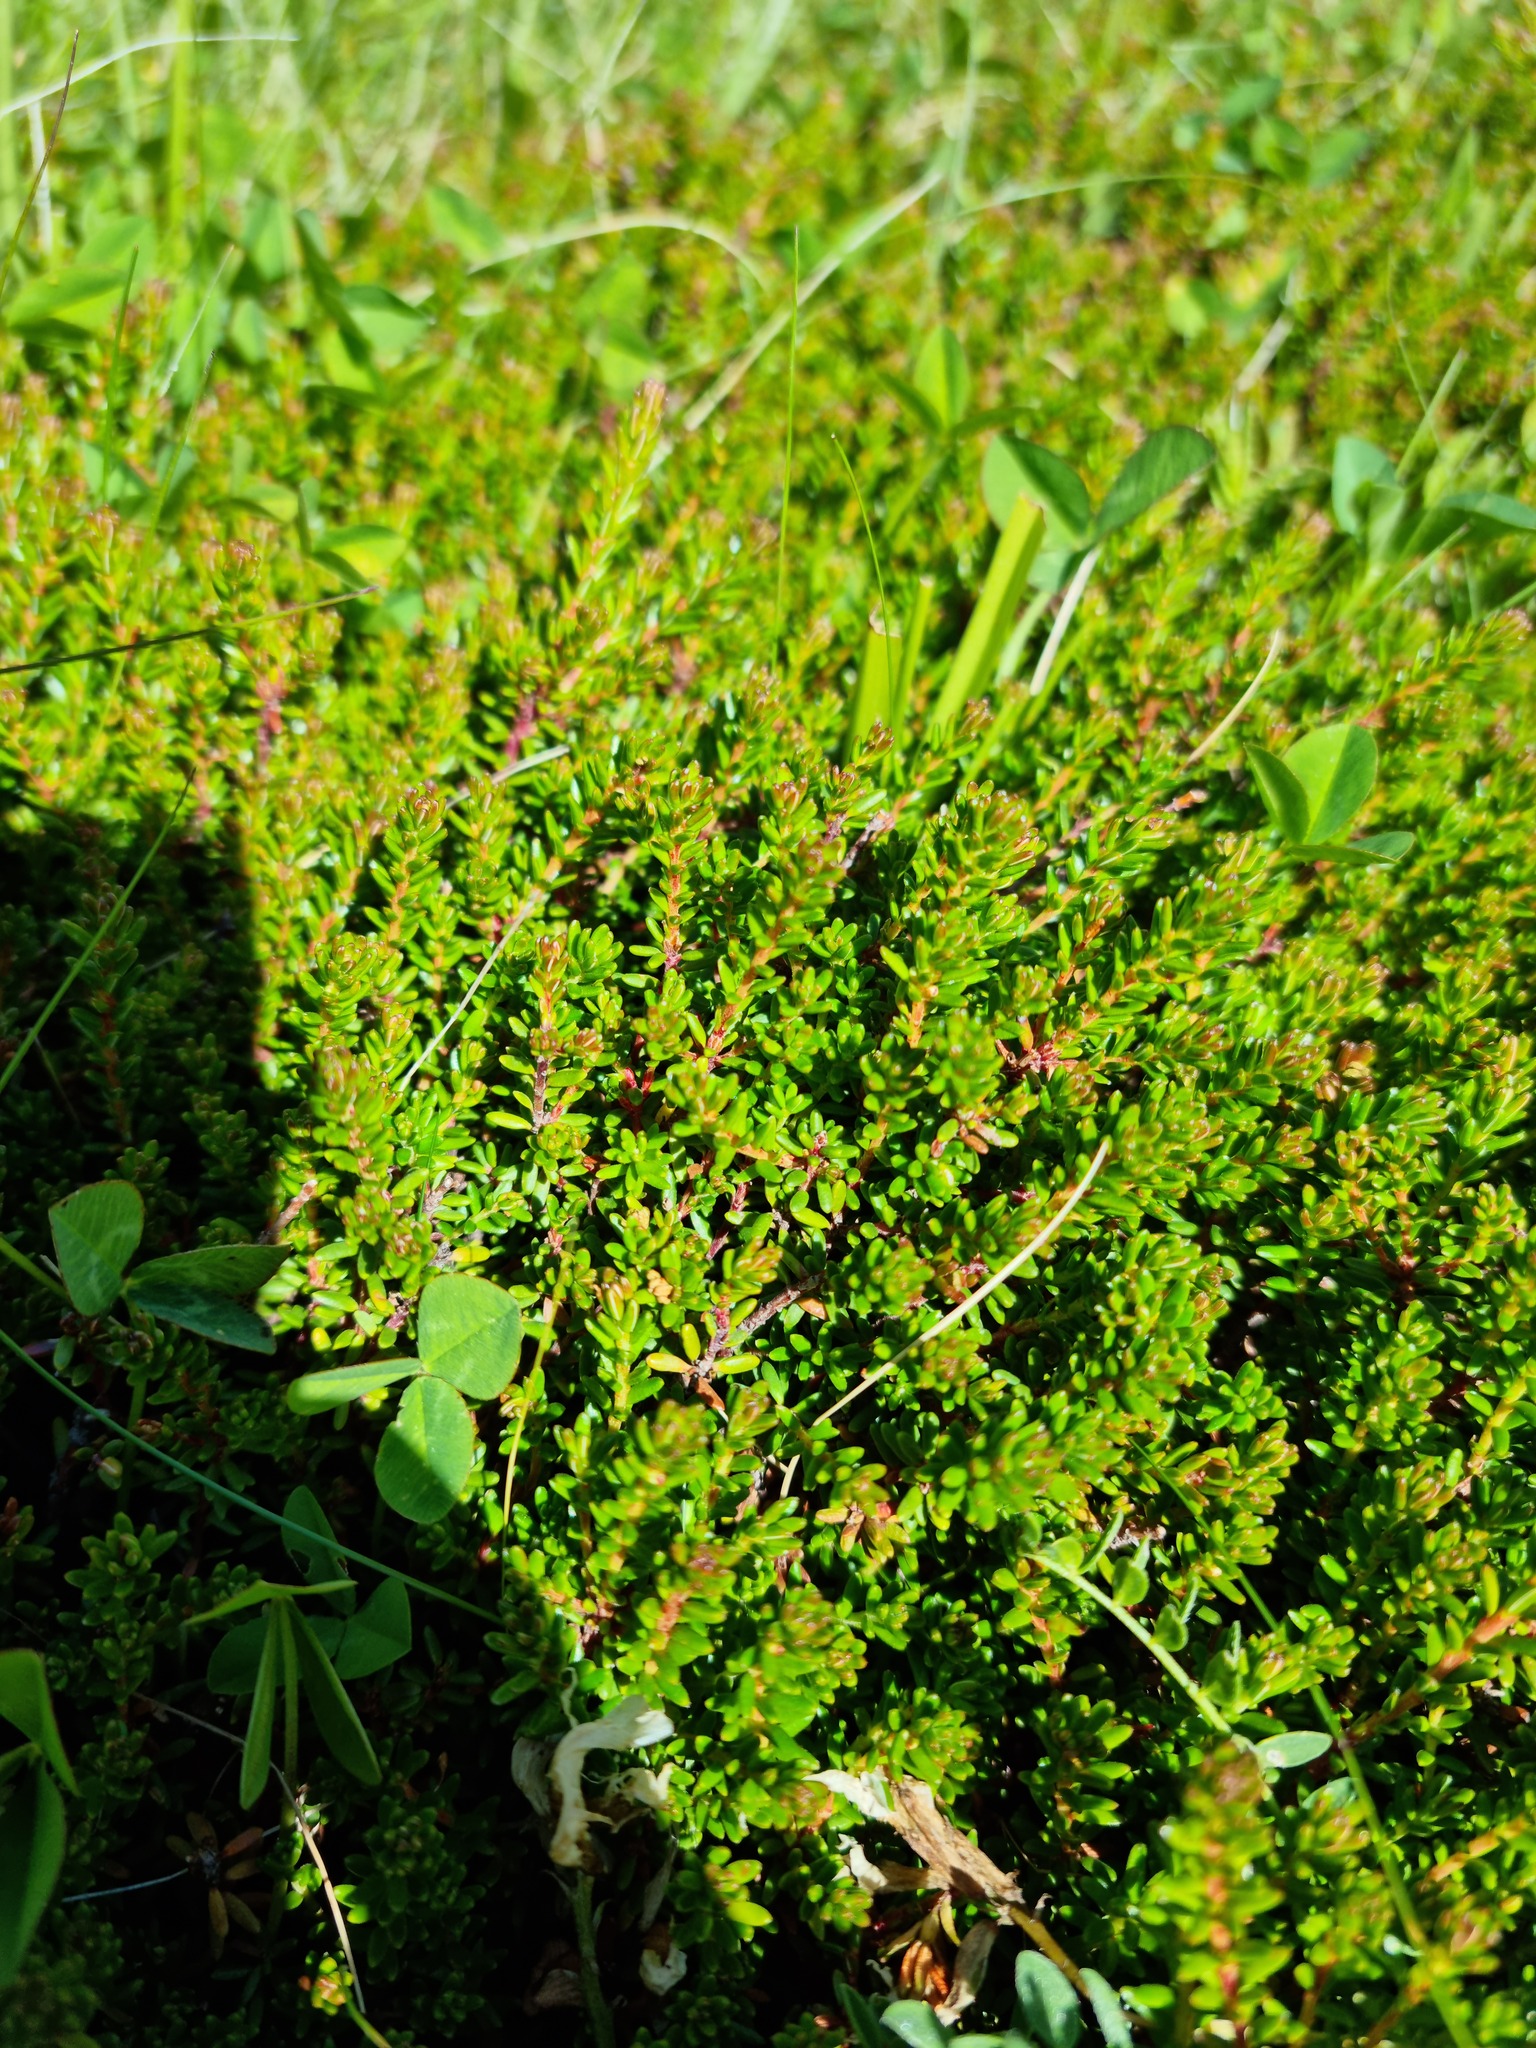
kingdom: Plantae
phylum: Tracheophyta
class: Magnoliopsida
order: Ericales
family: Ericaceae
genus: Empetrum
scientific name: Empetrum nigrum
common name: Black crowberry
